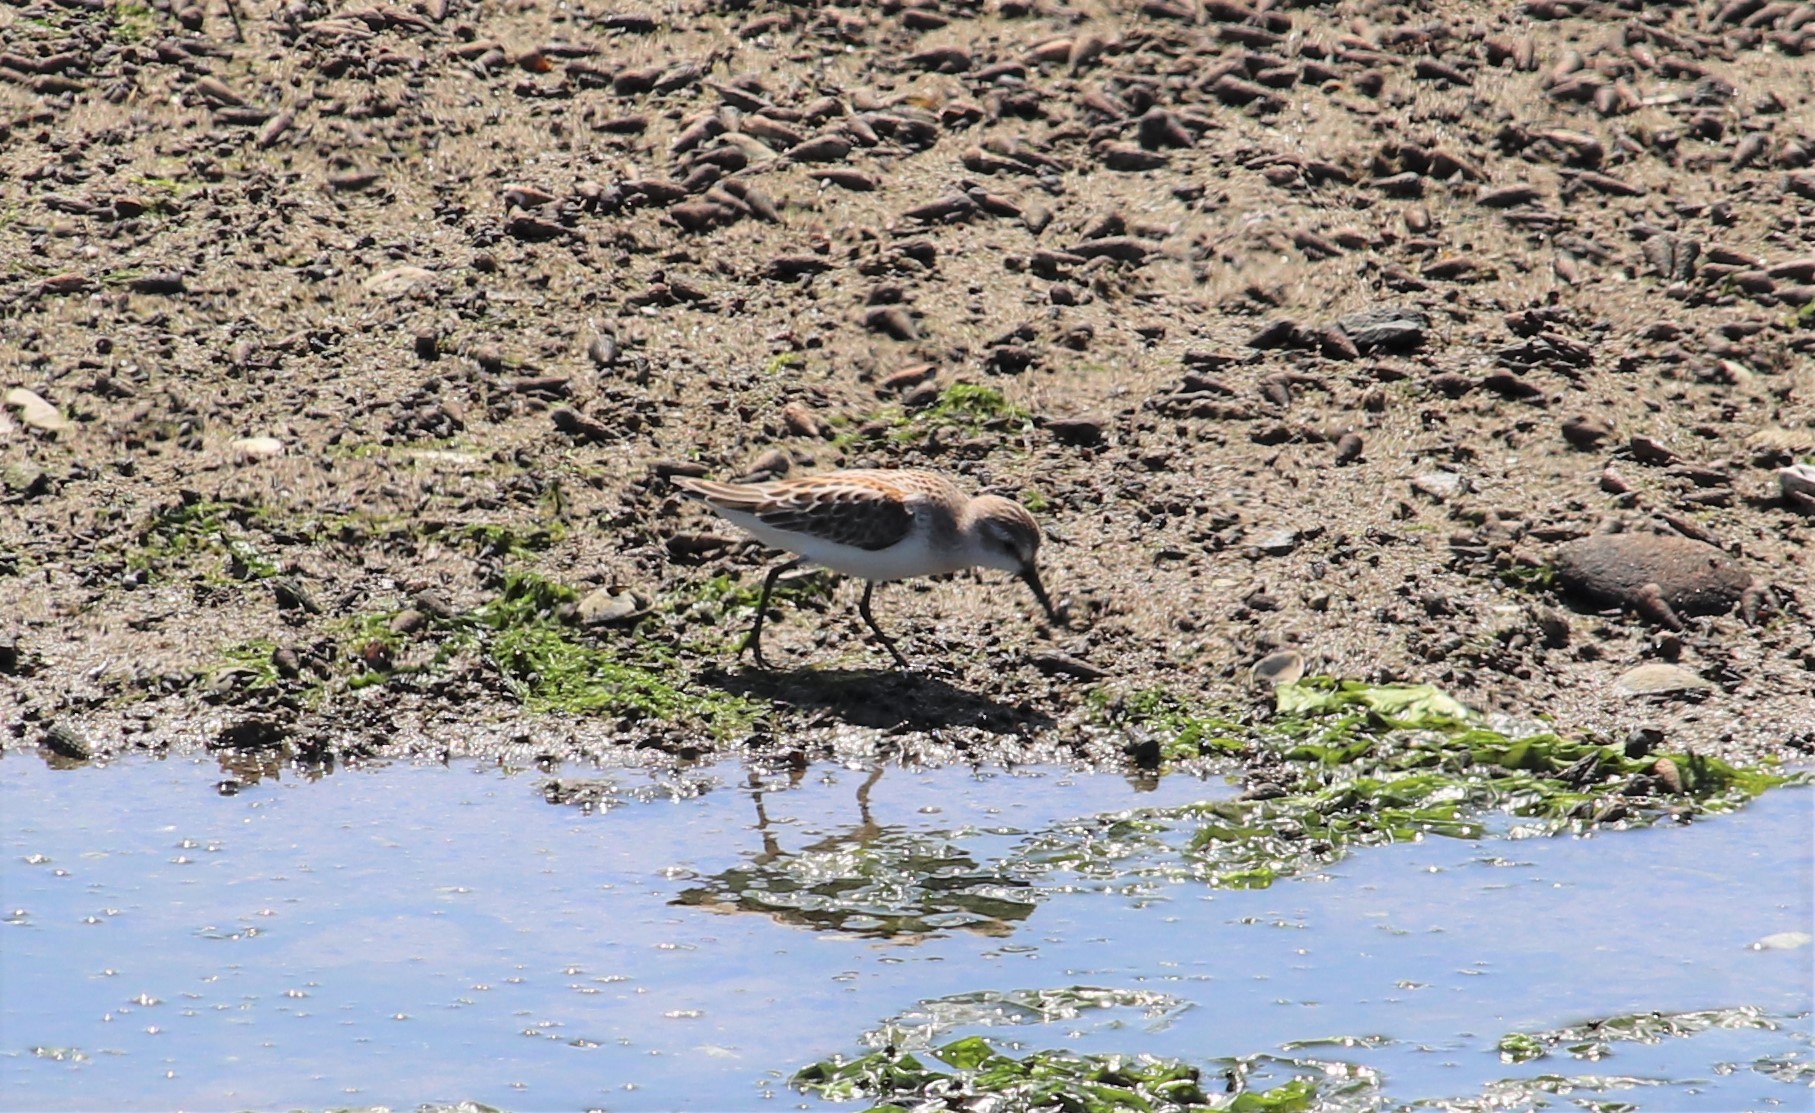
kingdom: Animalia
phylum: Chordata
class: Aves
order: Charadriiformes
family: Scolopacidae
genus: Calidris
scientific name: Calidris mauri
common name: Western sandpiper
